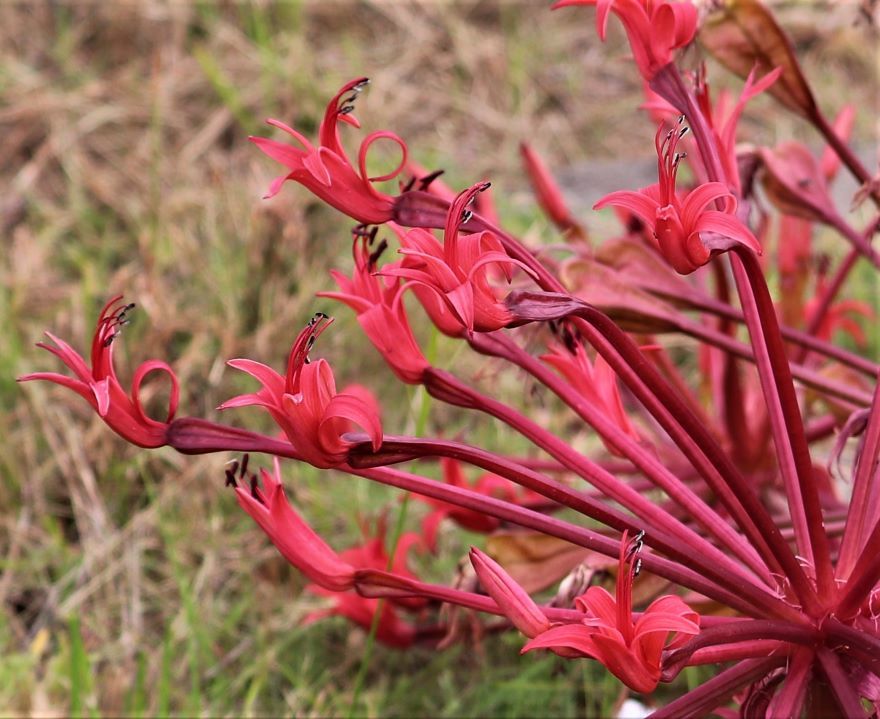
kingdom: Plantae
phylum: Tracheophyta
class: Liliopsida
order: Asparagales
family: Amaryllidaceae
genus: Brunsvigia
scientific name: Brunsvigia orientalis
